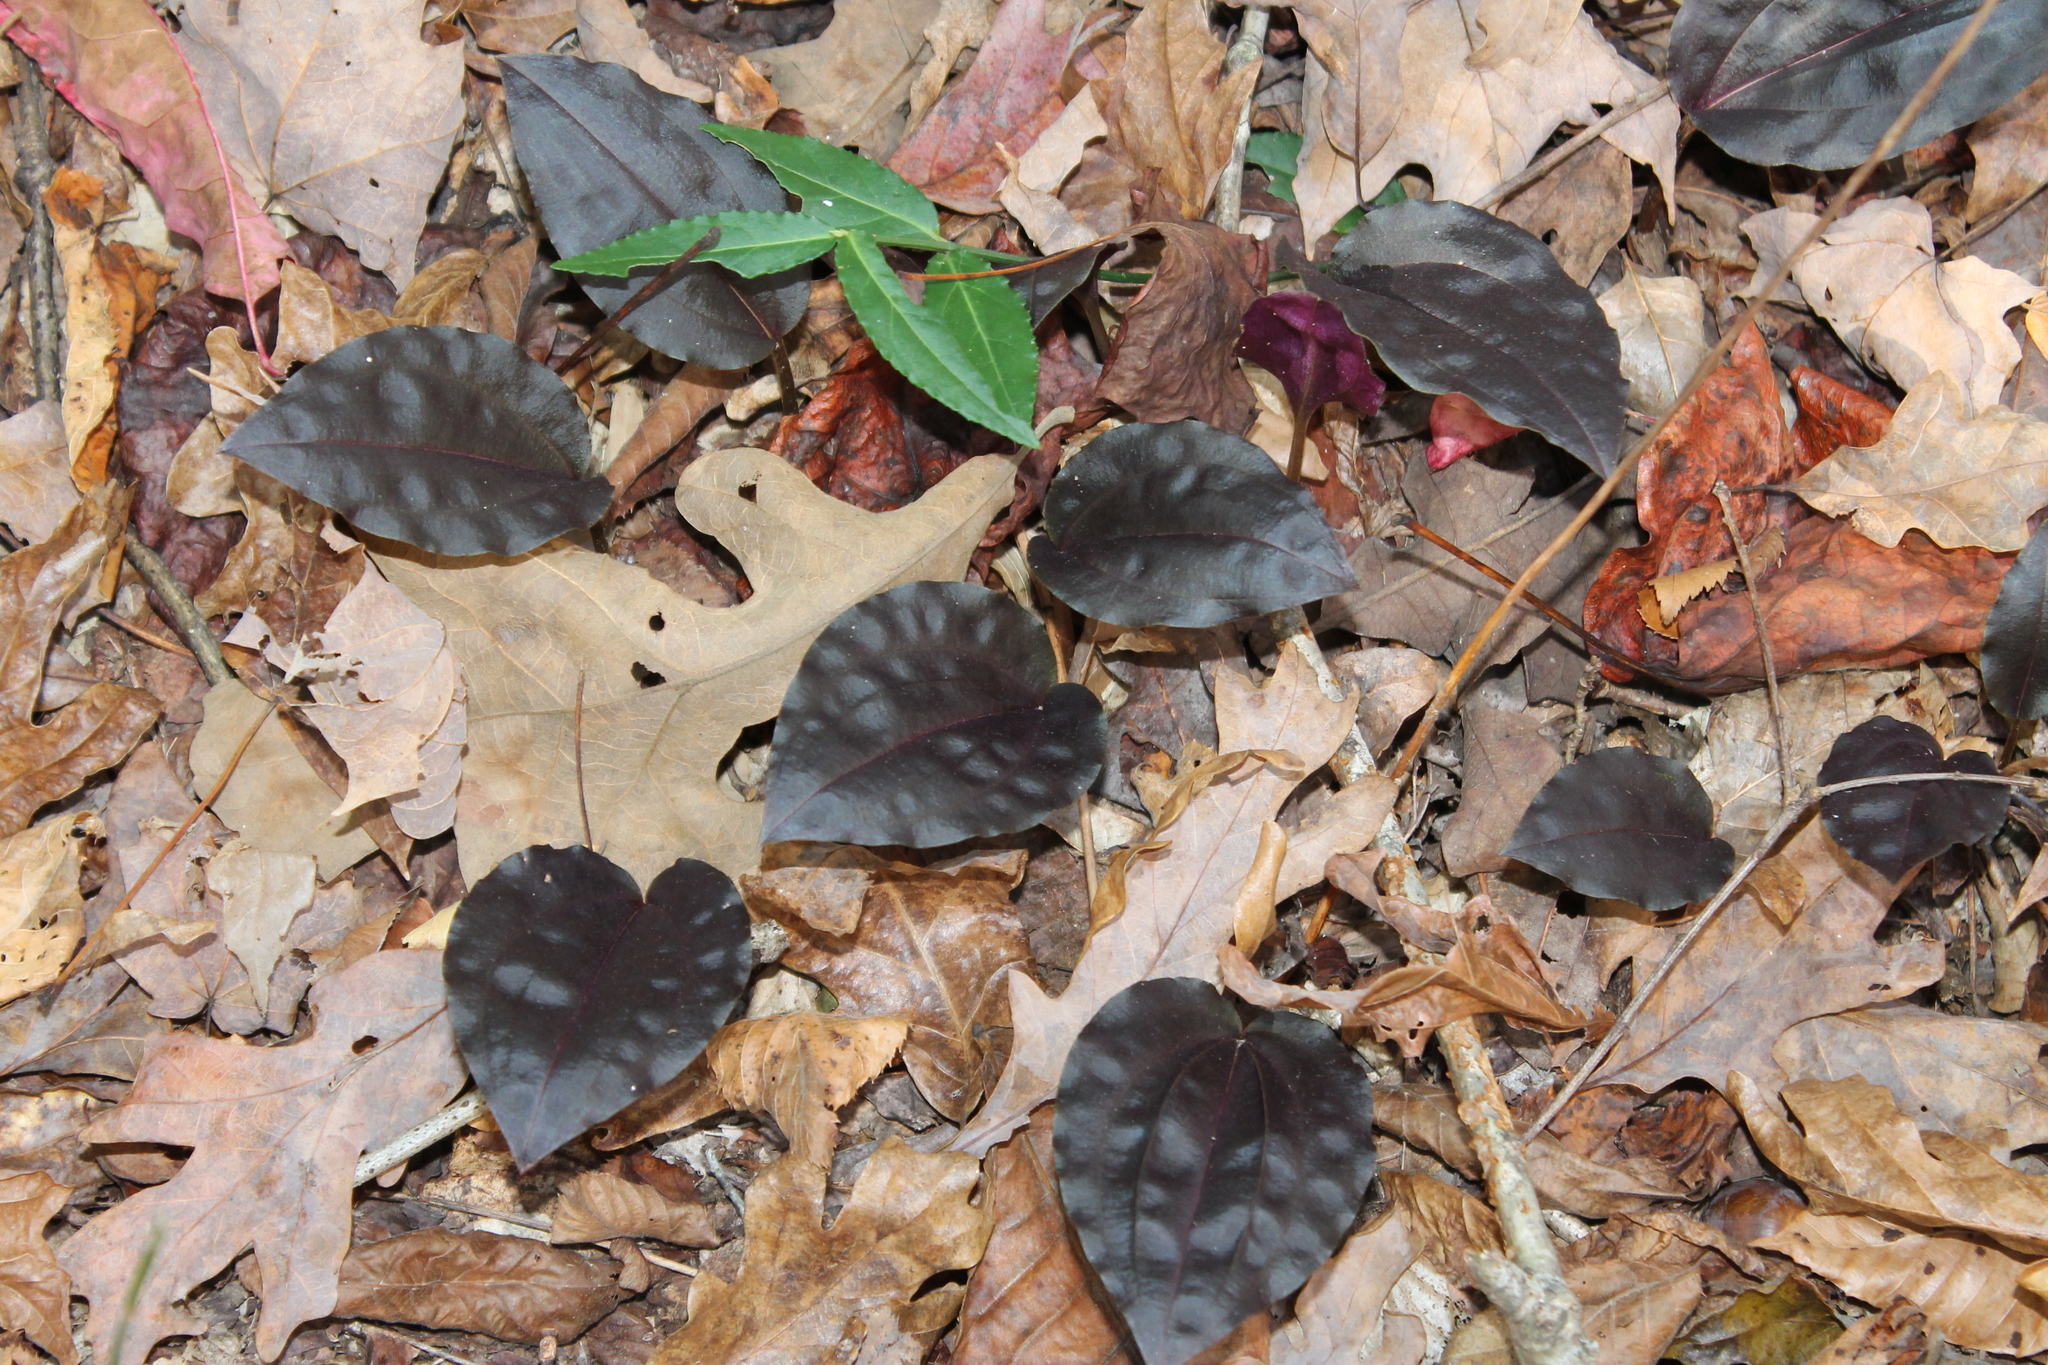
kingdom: Plantae
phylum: Tracheophyta
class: Liliopsida
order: Asparagales
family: Orchidaceae
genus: Tipularia
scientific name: Tipularia discolor
